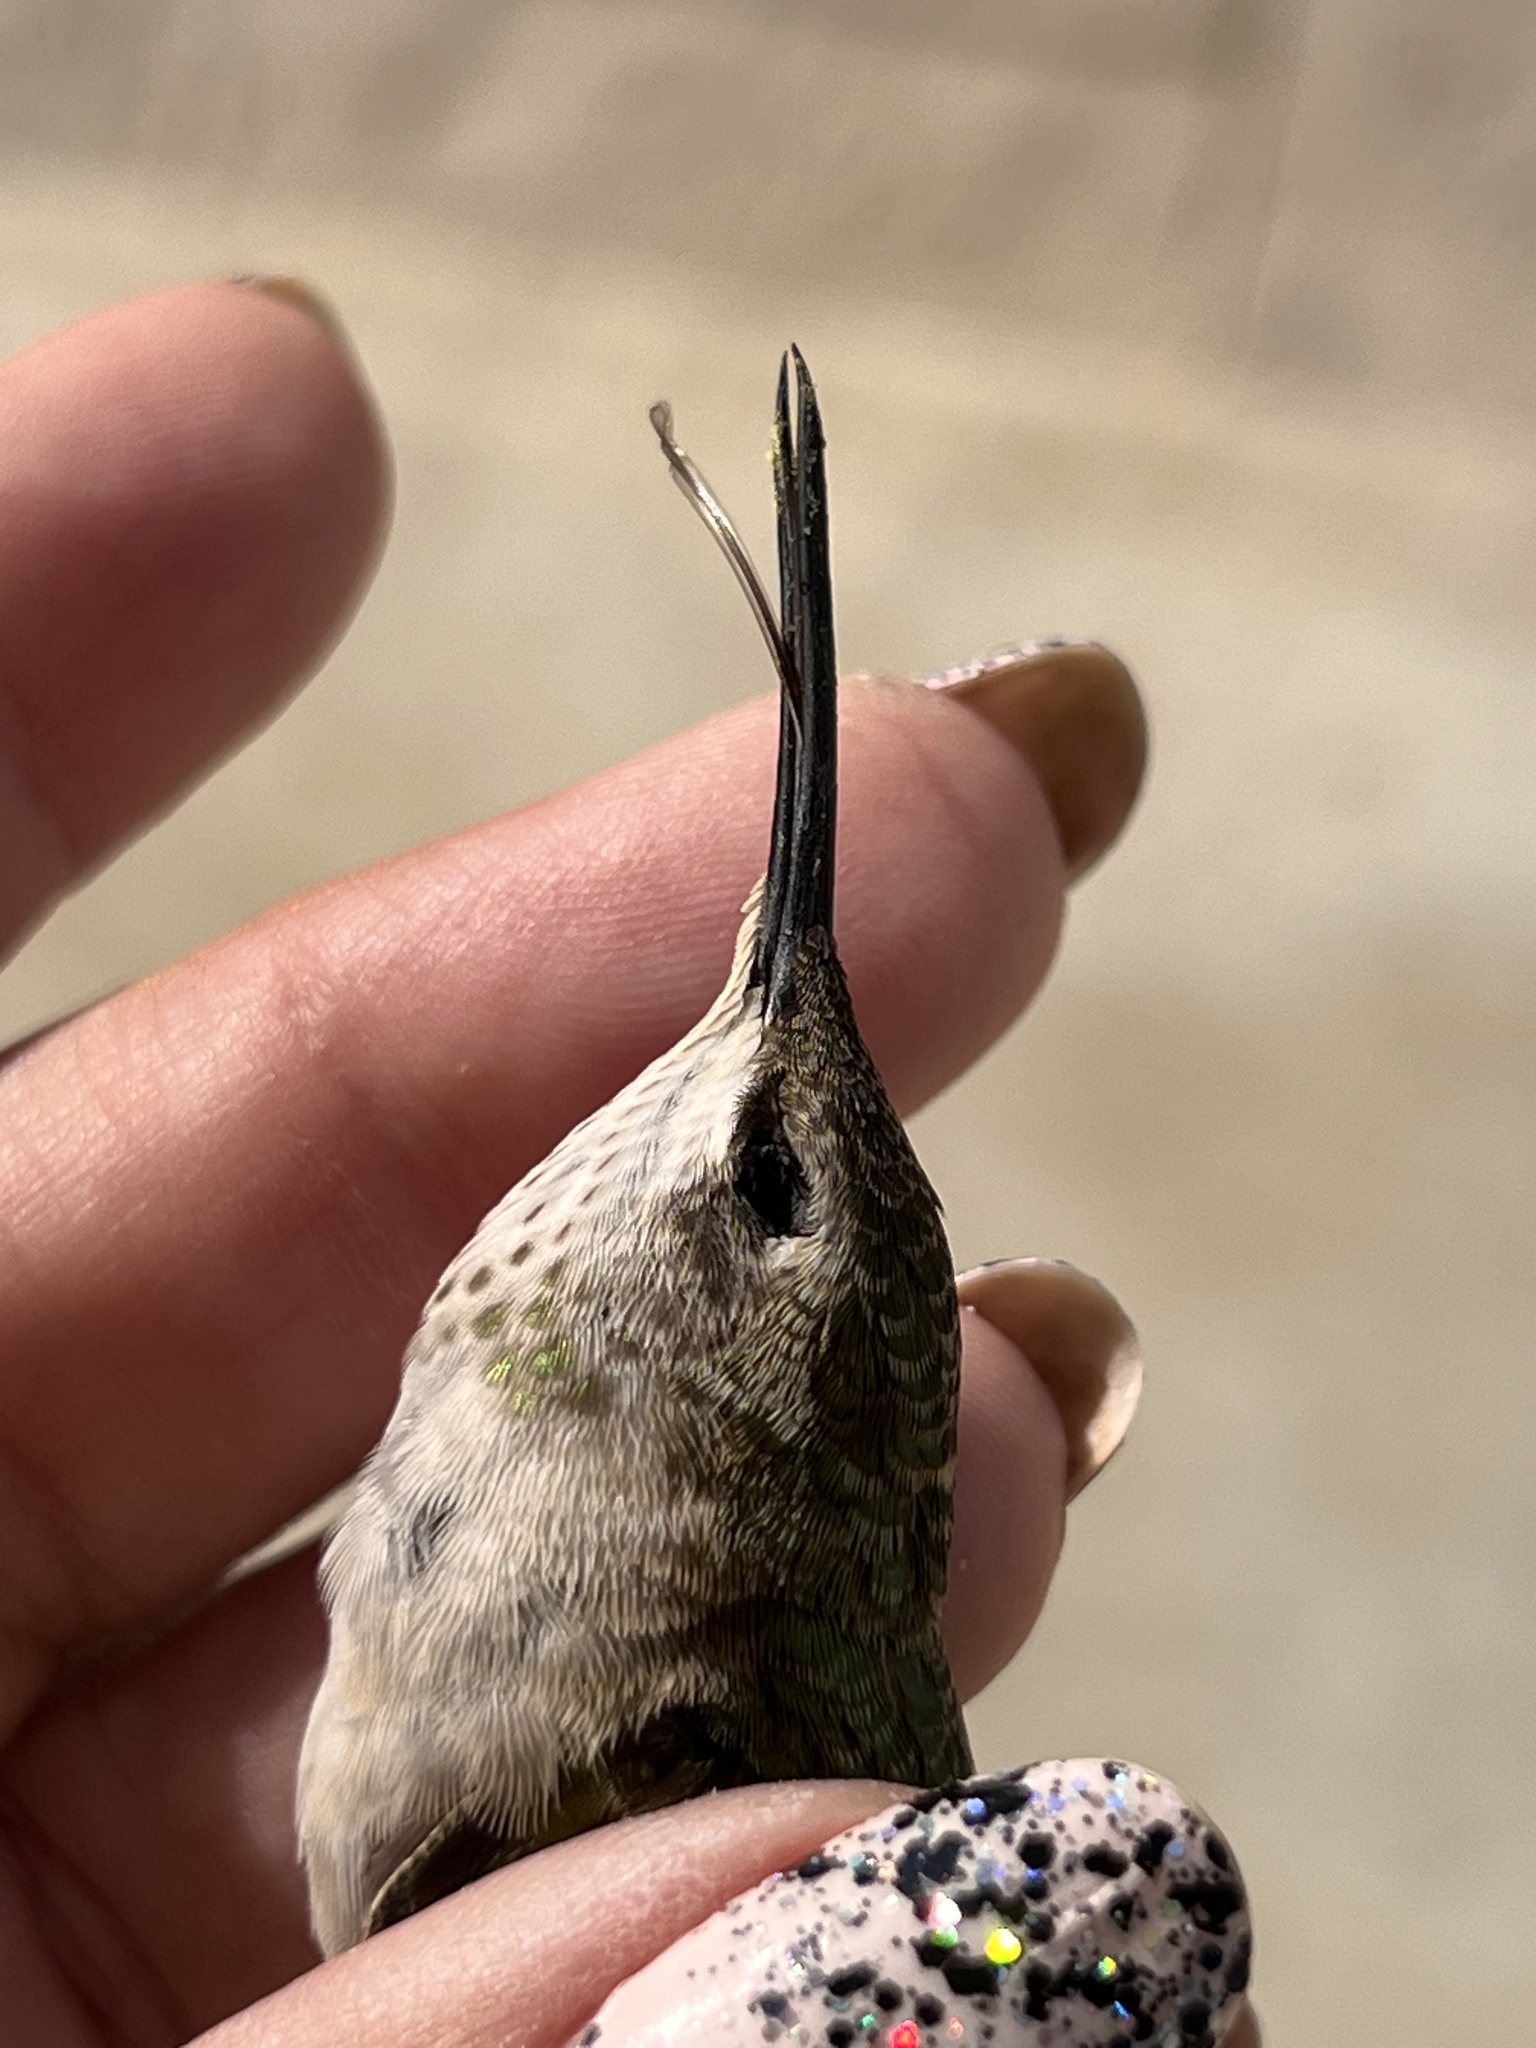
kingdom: Animalia
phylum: Chordata
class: Aves
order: Apodiformes
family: Trochilidae
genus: Selasphorus
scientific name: Selasphorus calliope
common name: Calliope hummingbird
